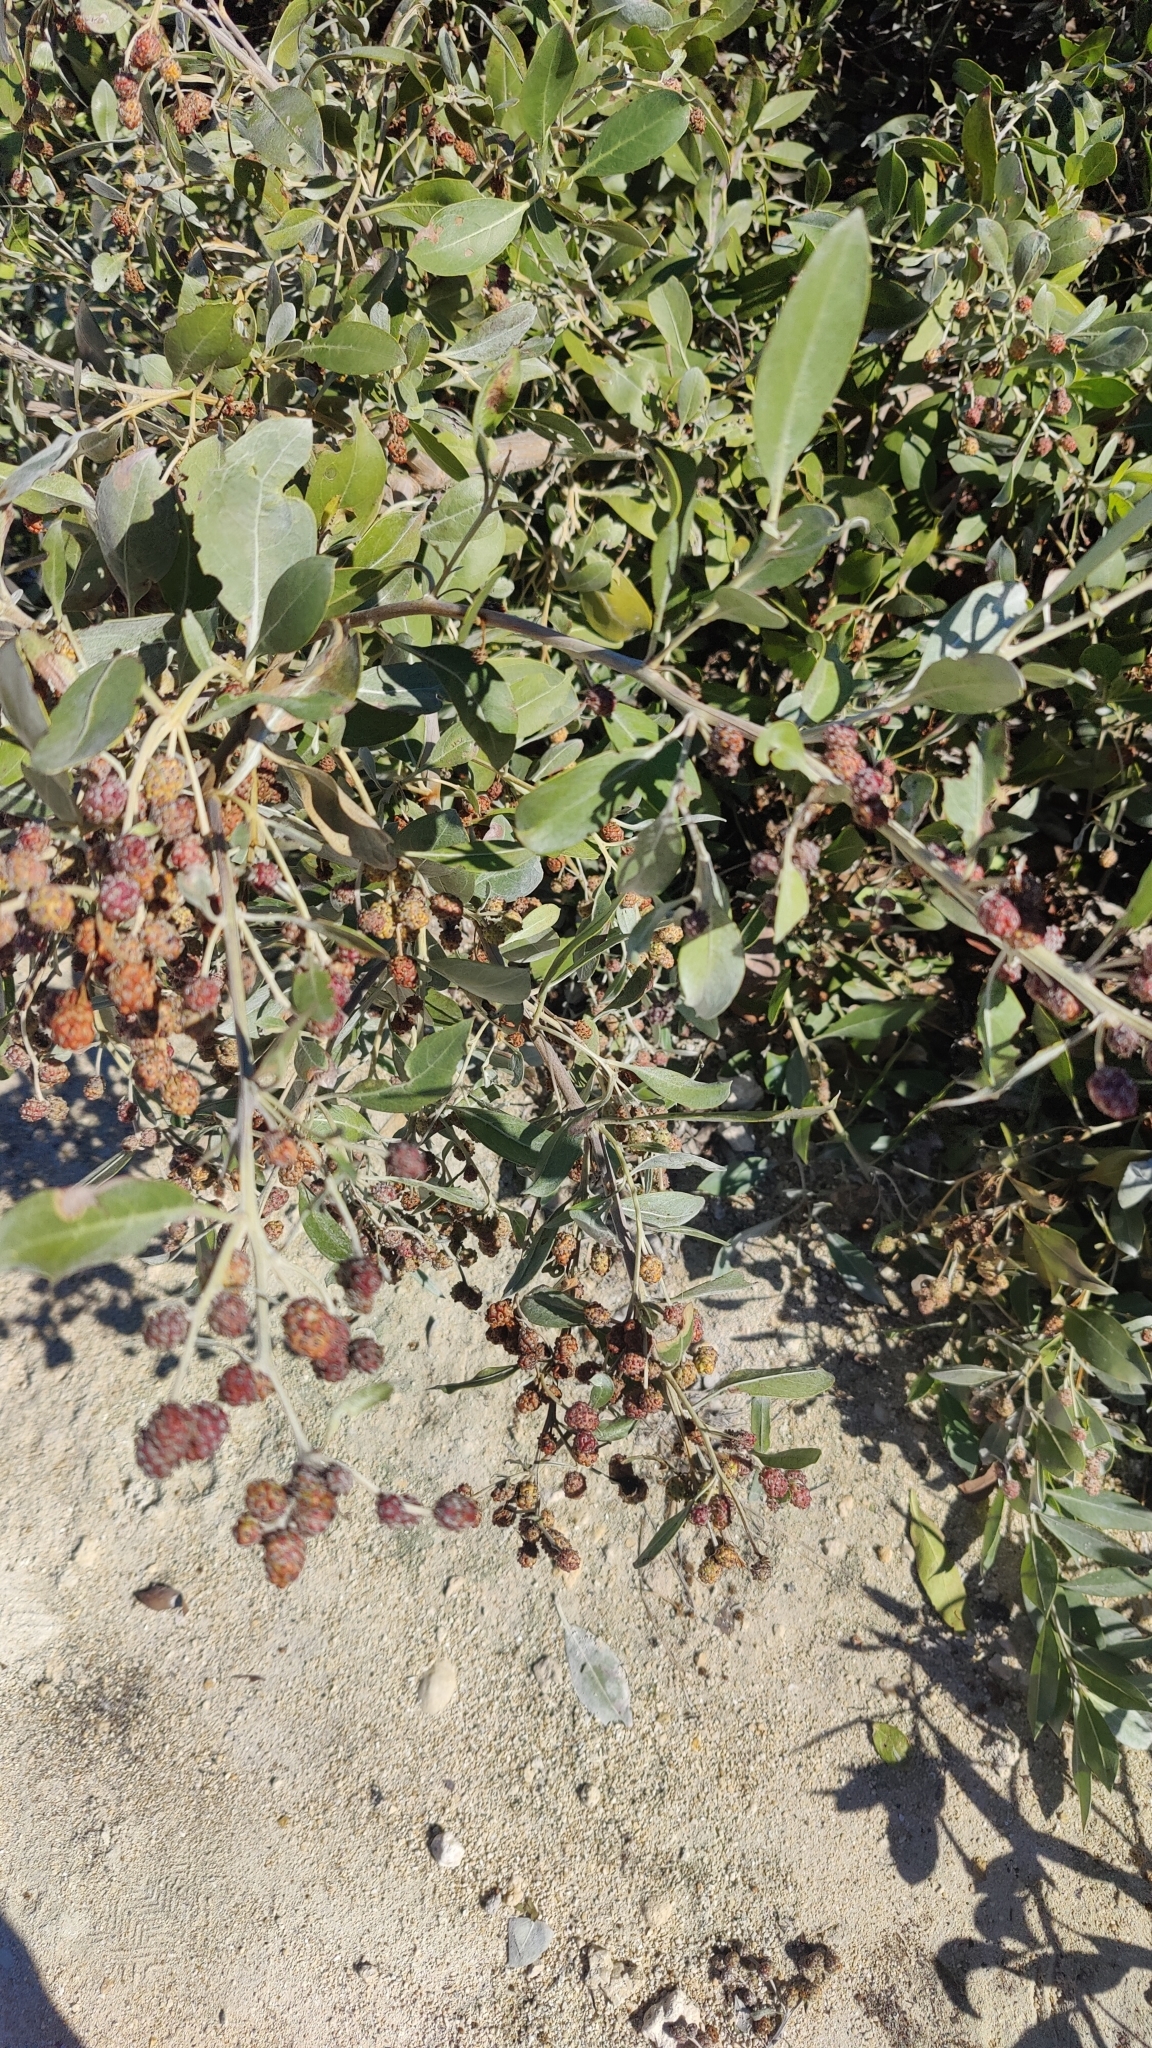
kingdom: Plantae
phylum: Tracheophyta
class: Magnoliopsida
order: Myrtales
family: Combretaceae
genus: Conocarpus
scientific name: Conocarpus erectus
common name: Button mangrove
